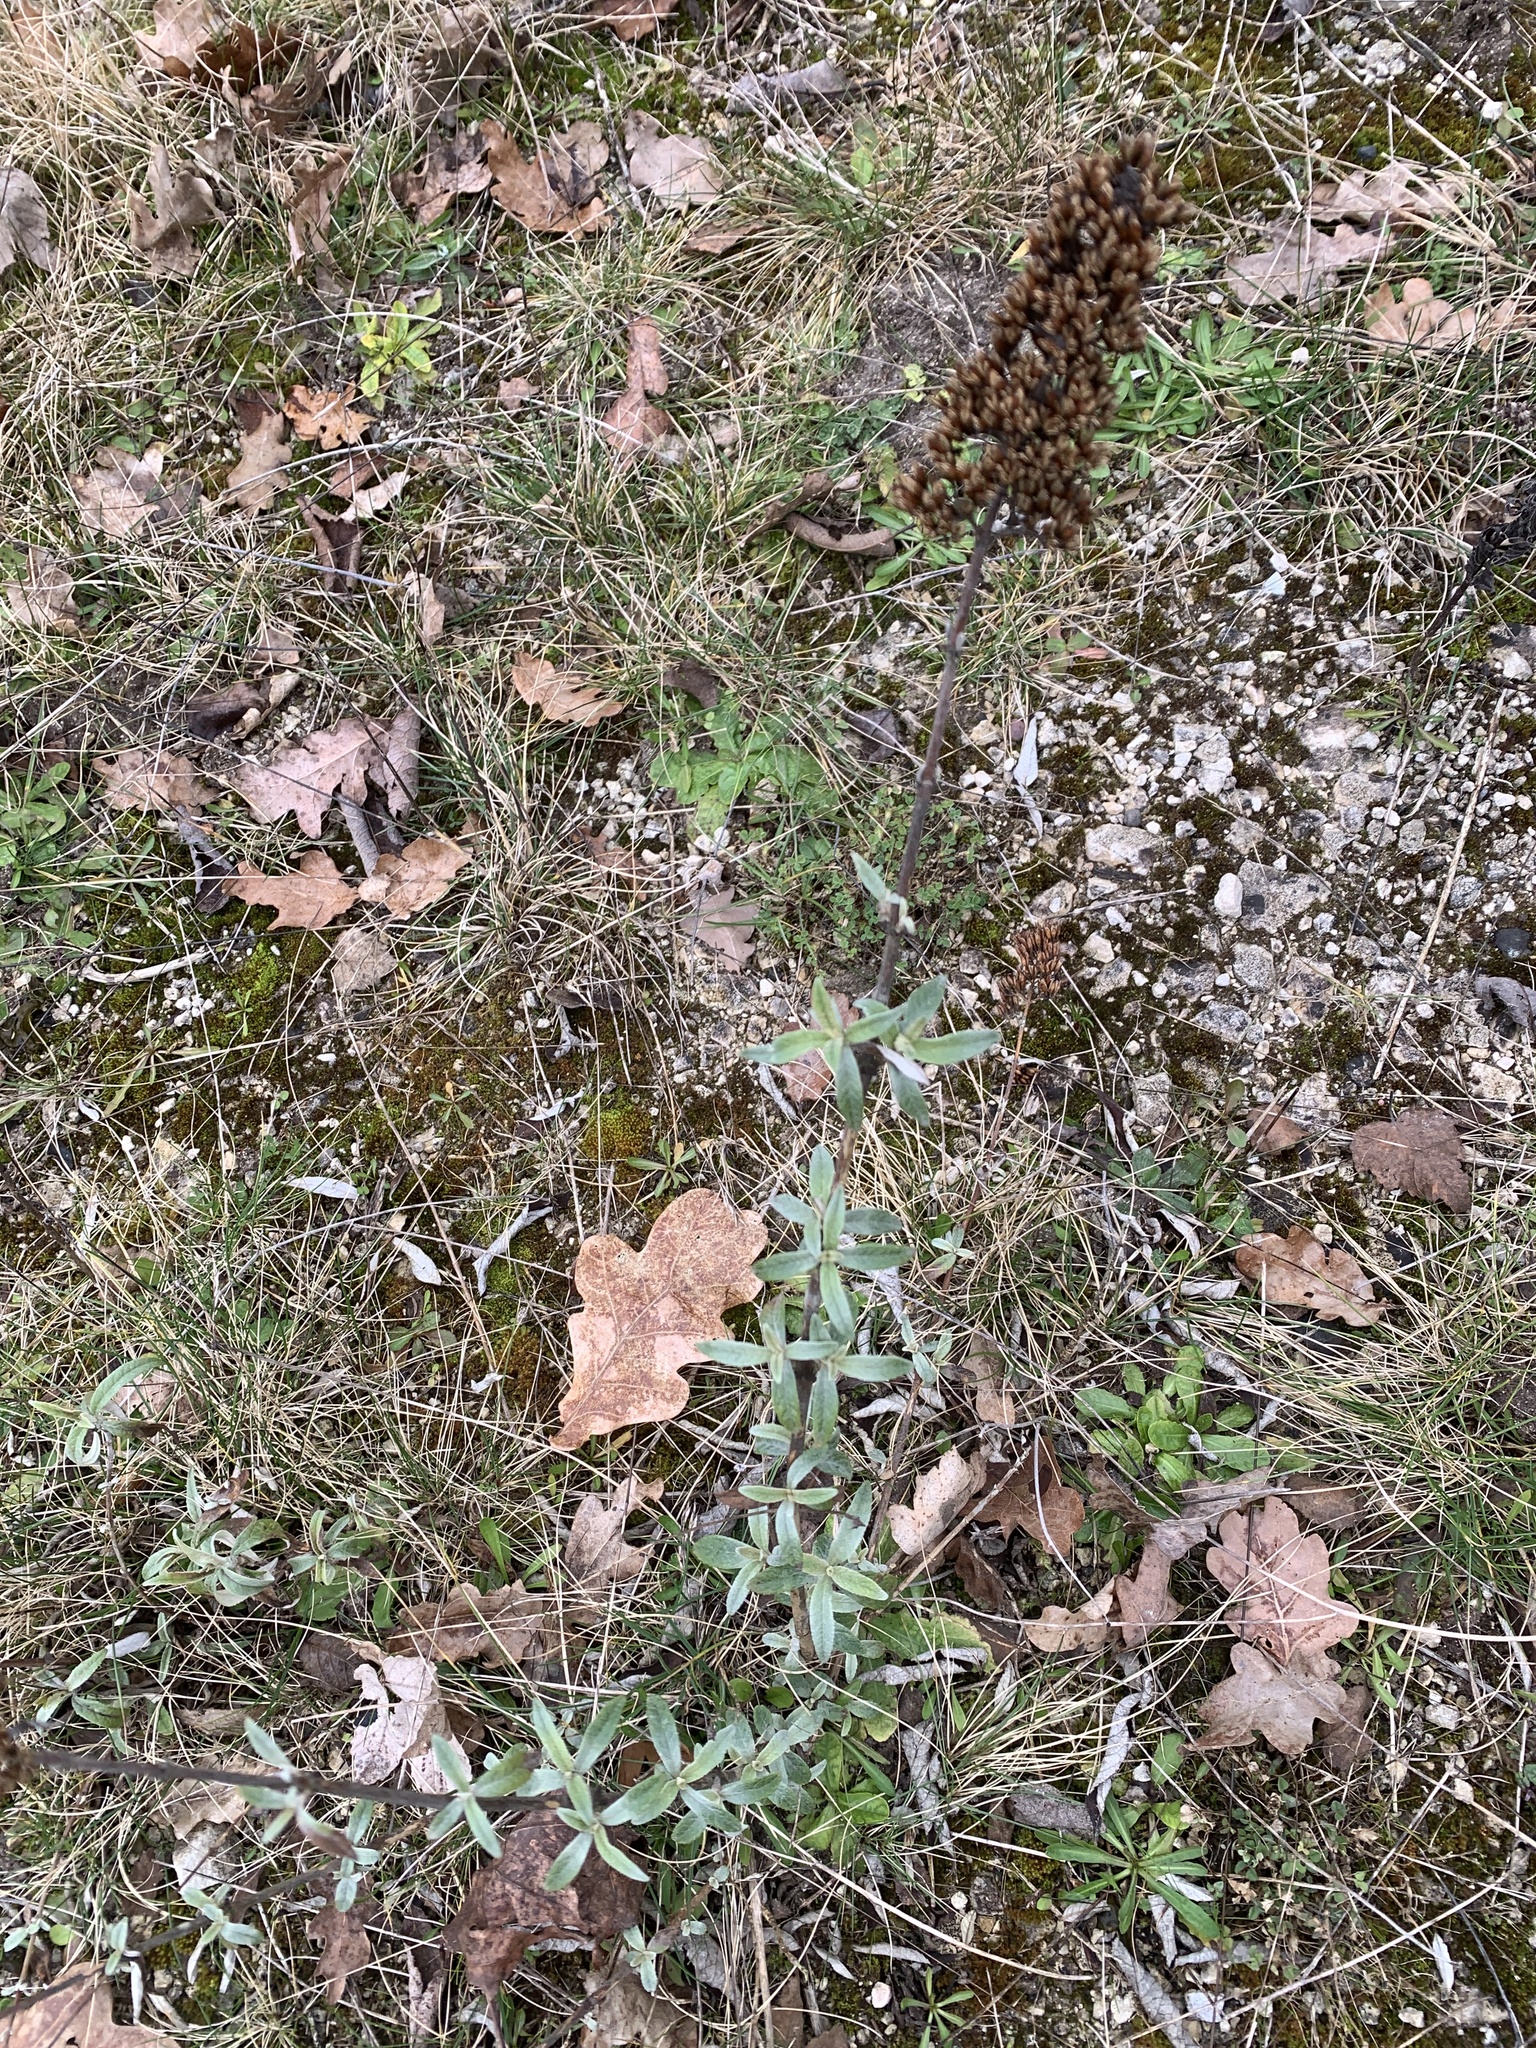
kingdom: Plantae
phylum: Tracheophyta
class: Magnoliopsida
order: Lamiales
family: Scrophulariaceae
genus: Buddleja
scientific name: Buddleja davidii
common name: Butterfly-bush
